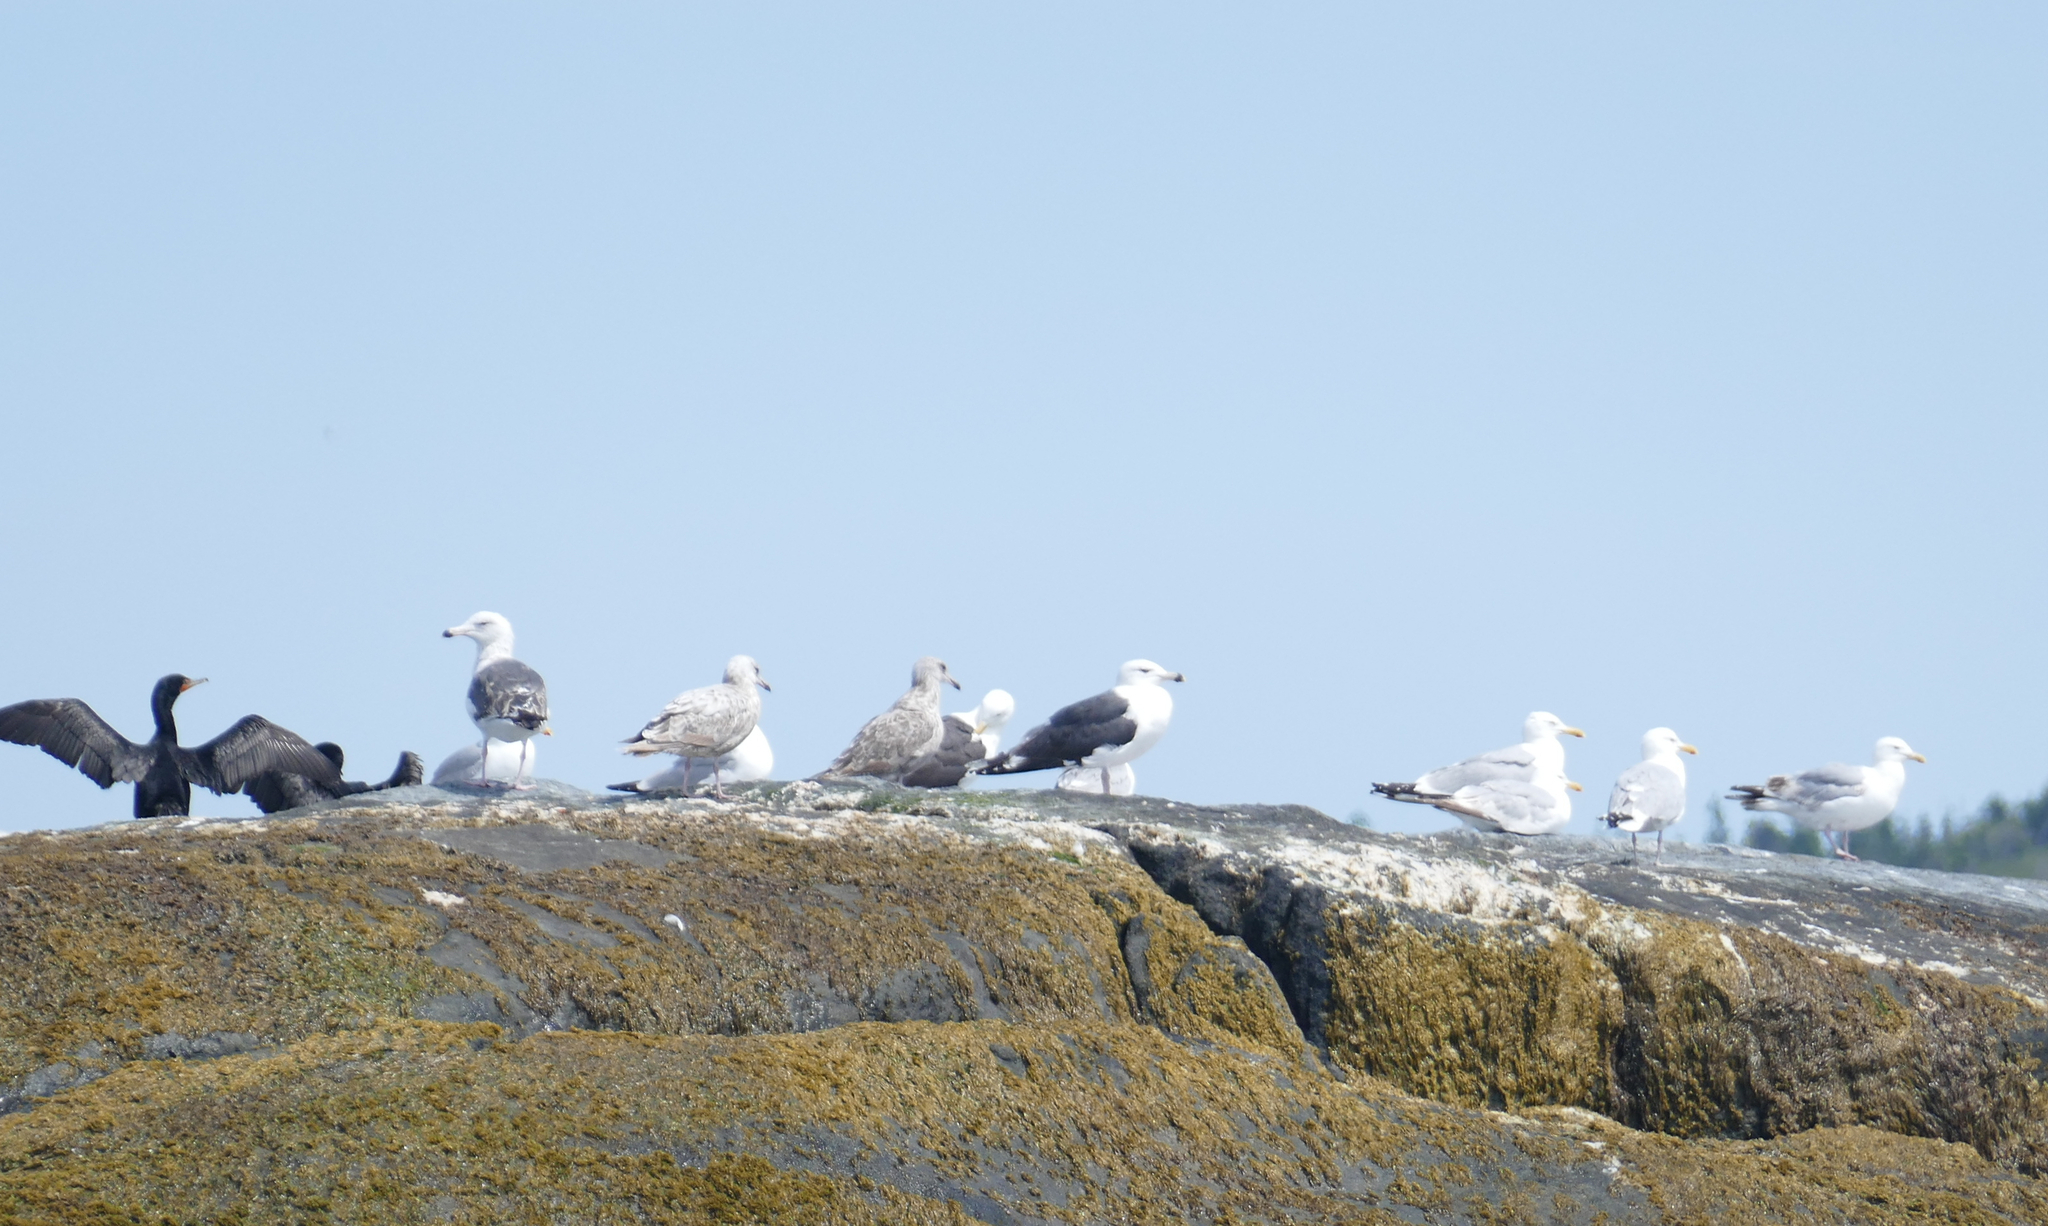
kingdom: Animalia
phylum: Chordata
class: Aves
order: Charadriiformes
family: Laridae
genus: Larus
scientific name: Larus marinus
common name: Great black-backed gull
